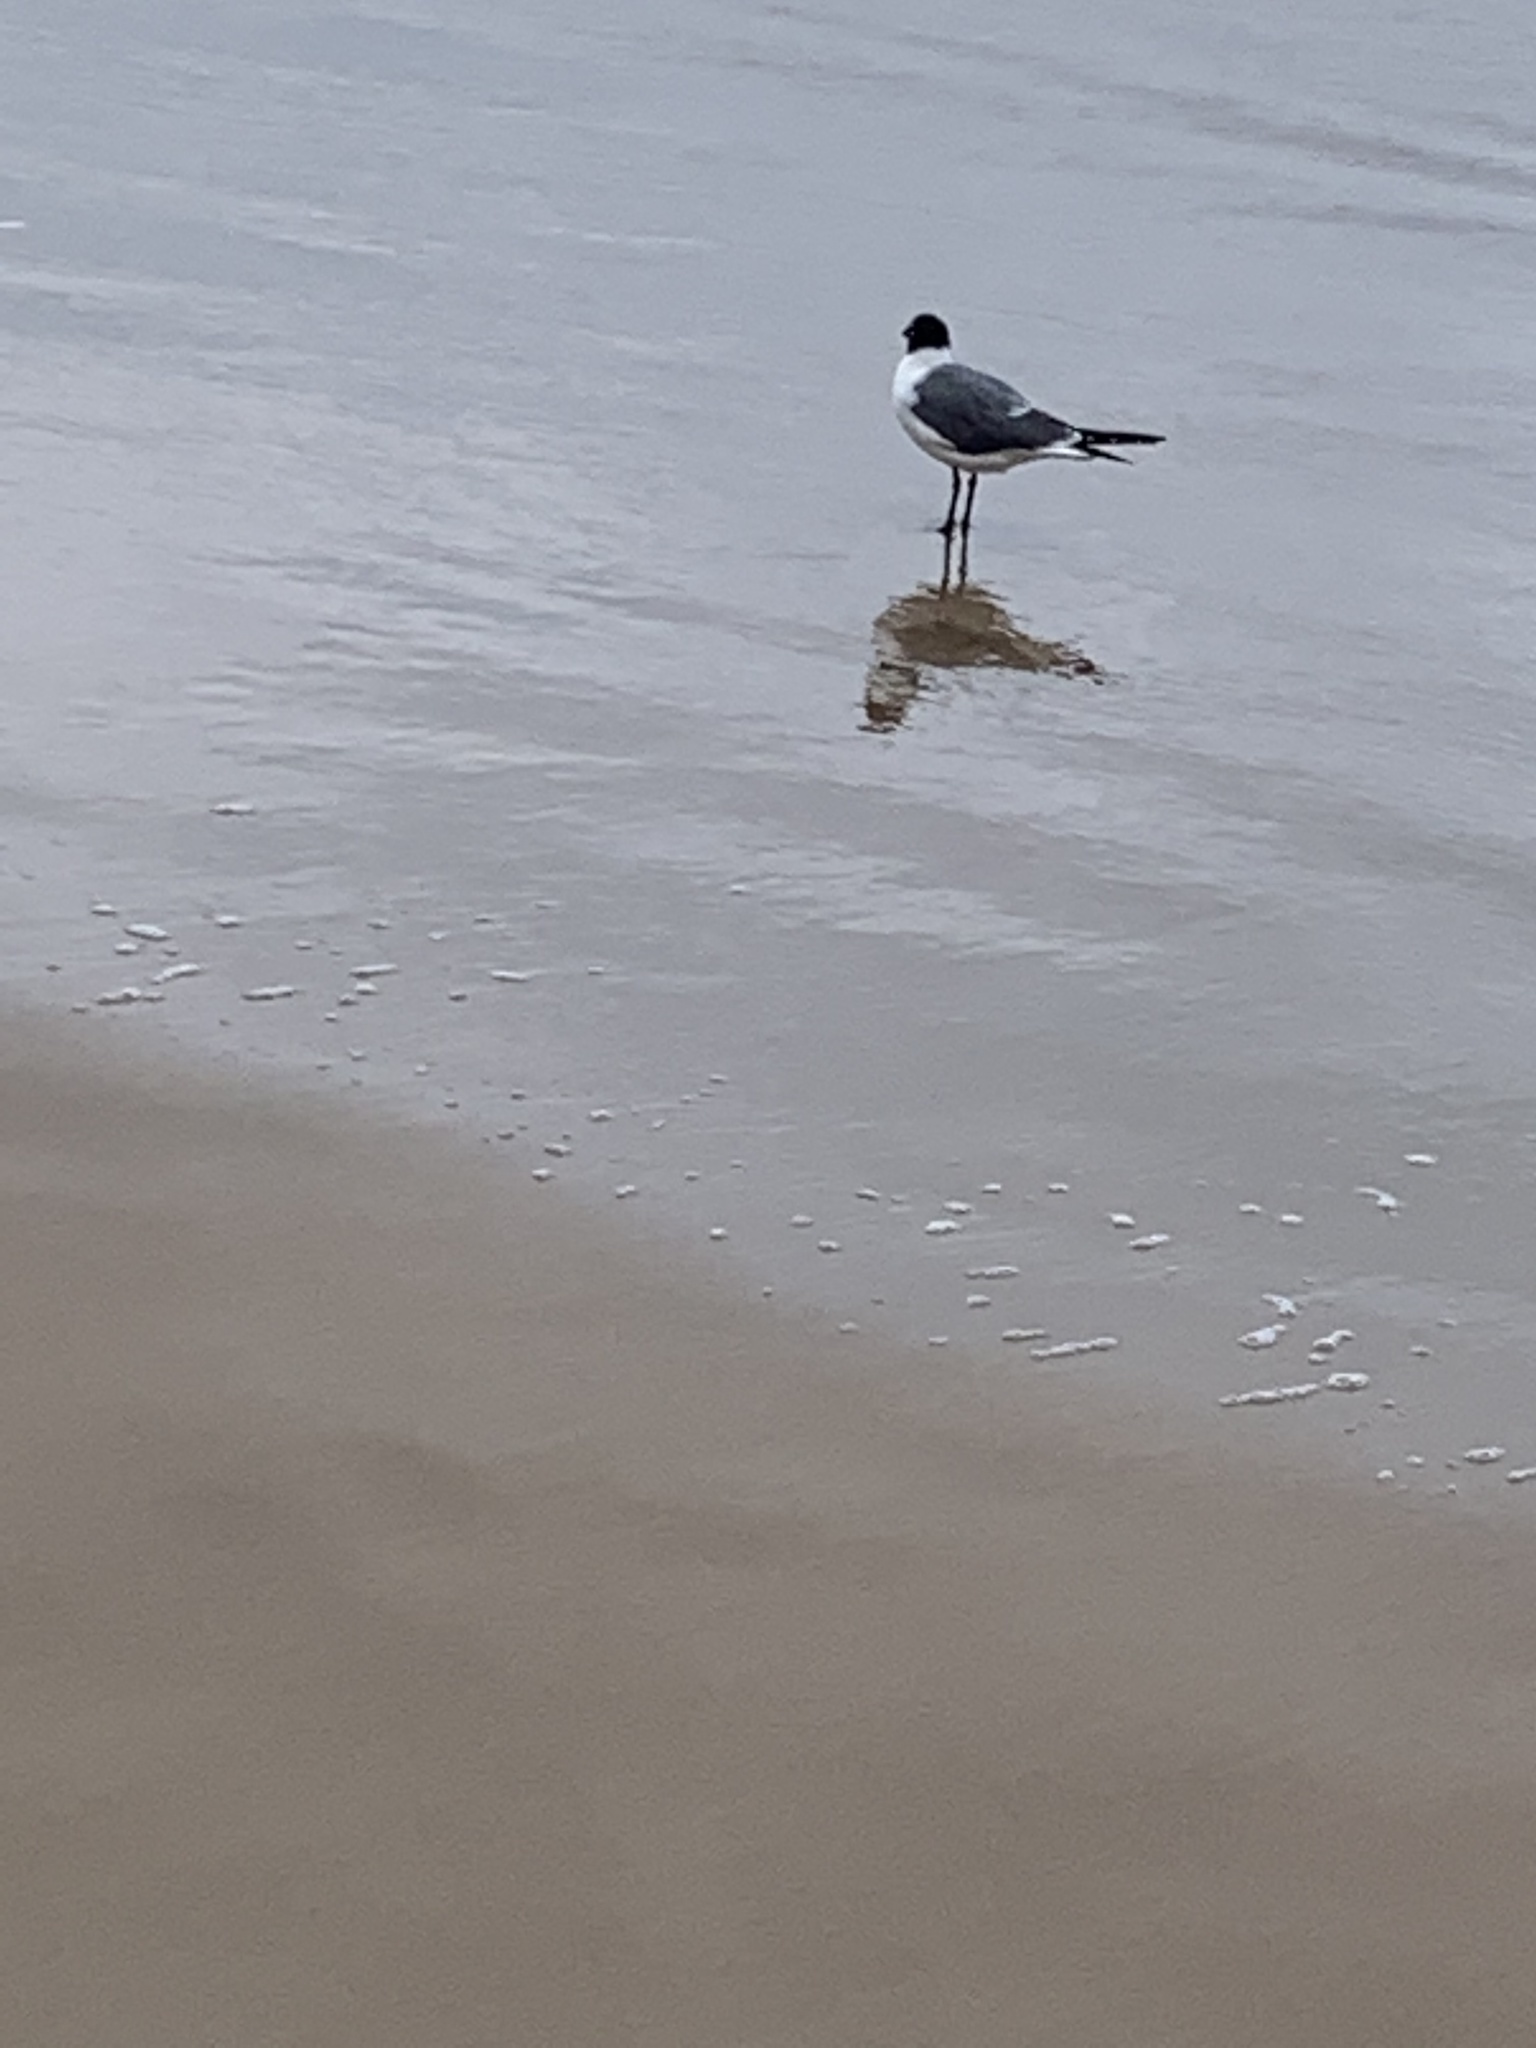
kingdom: Animalia
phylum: Chordata
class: Aves
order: Charadriiformes
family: Laridae
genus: Leucophaeus
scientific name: Leucophaeus atricilla
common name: Laughing gull
